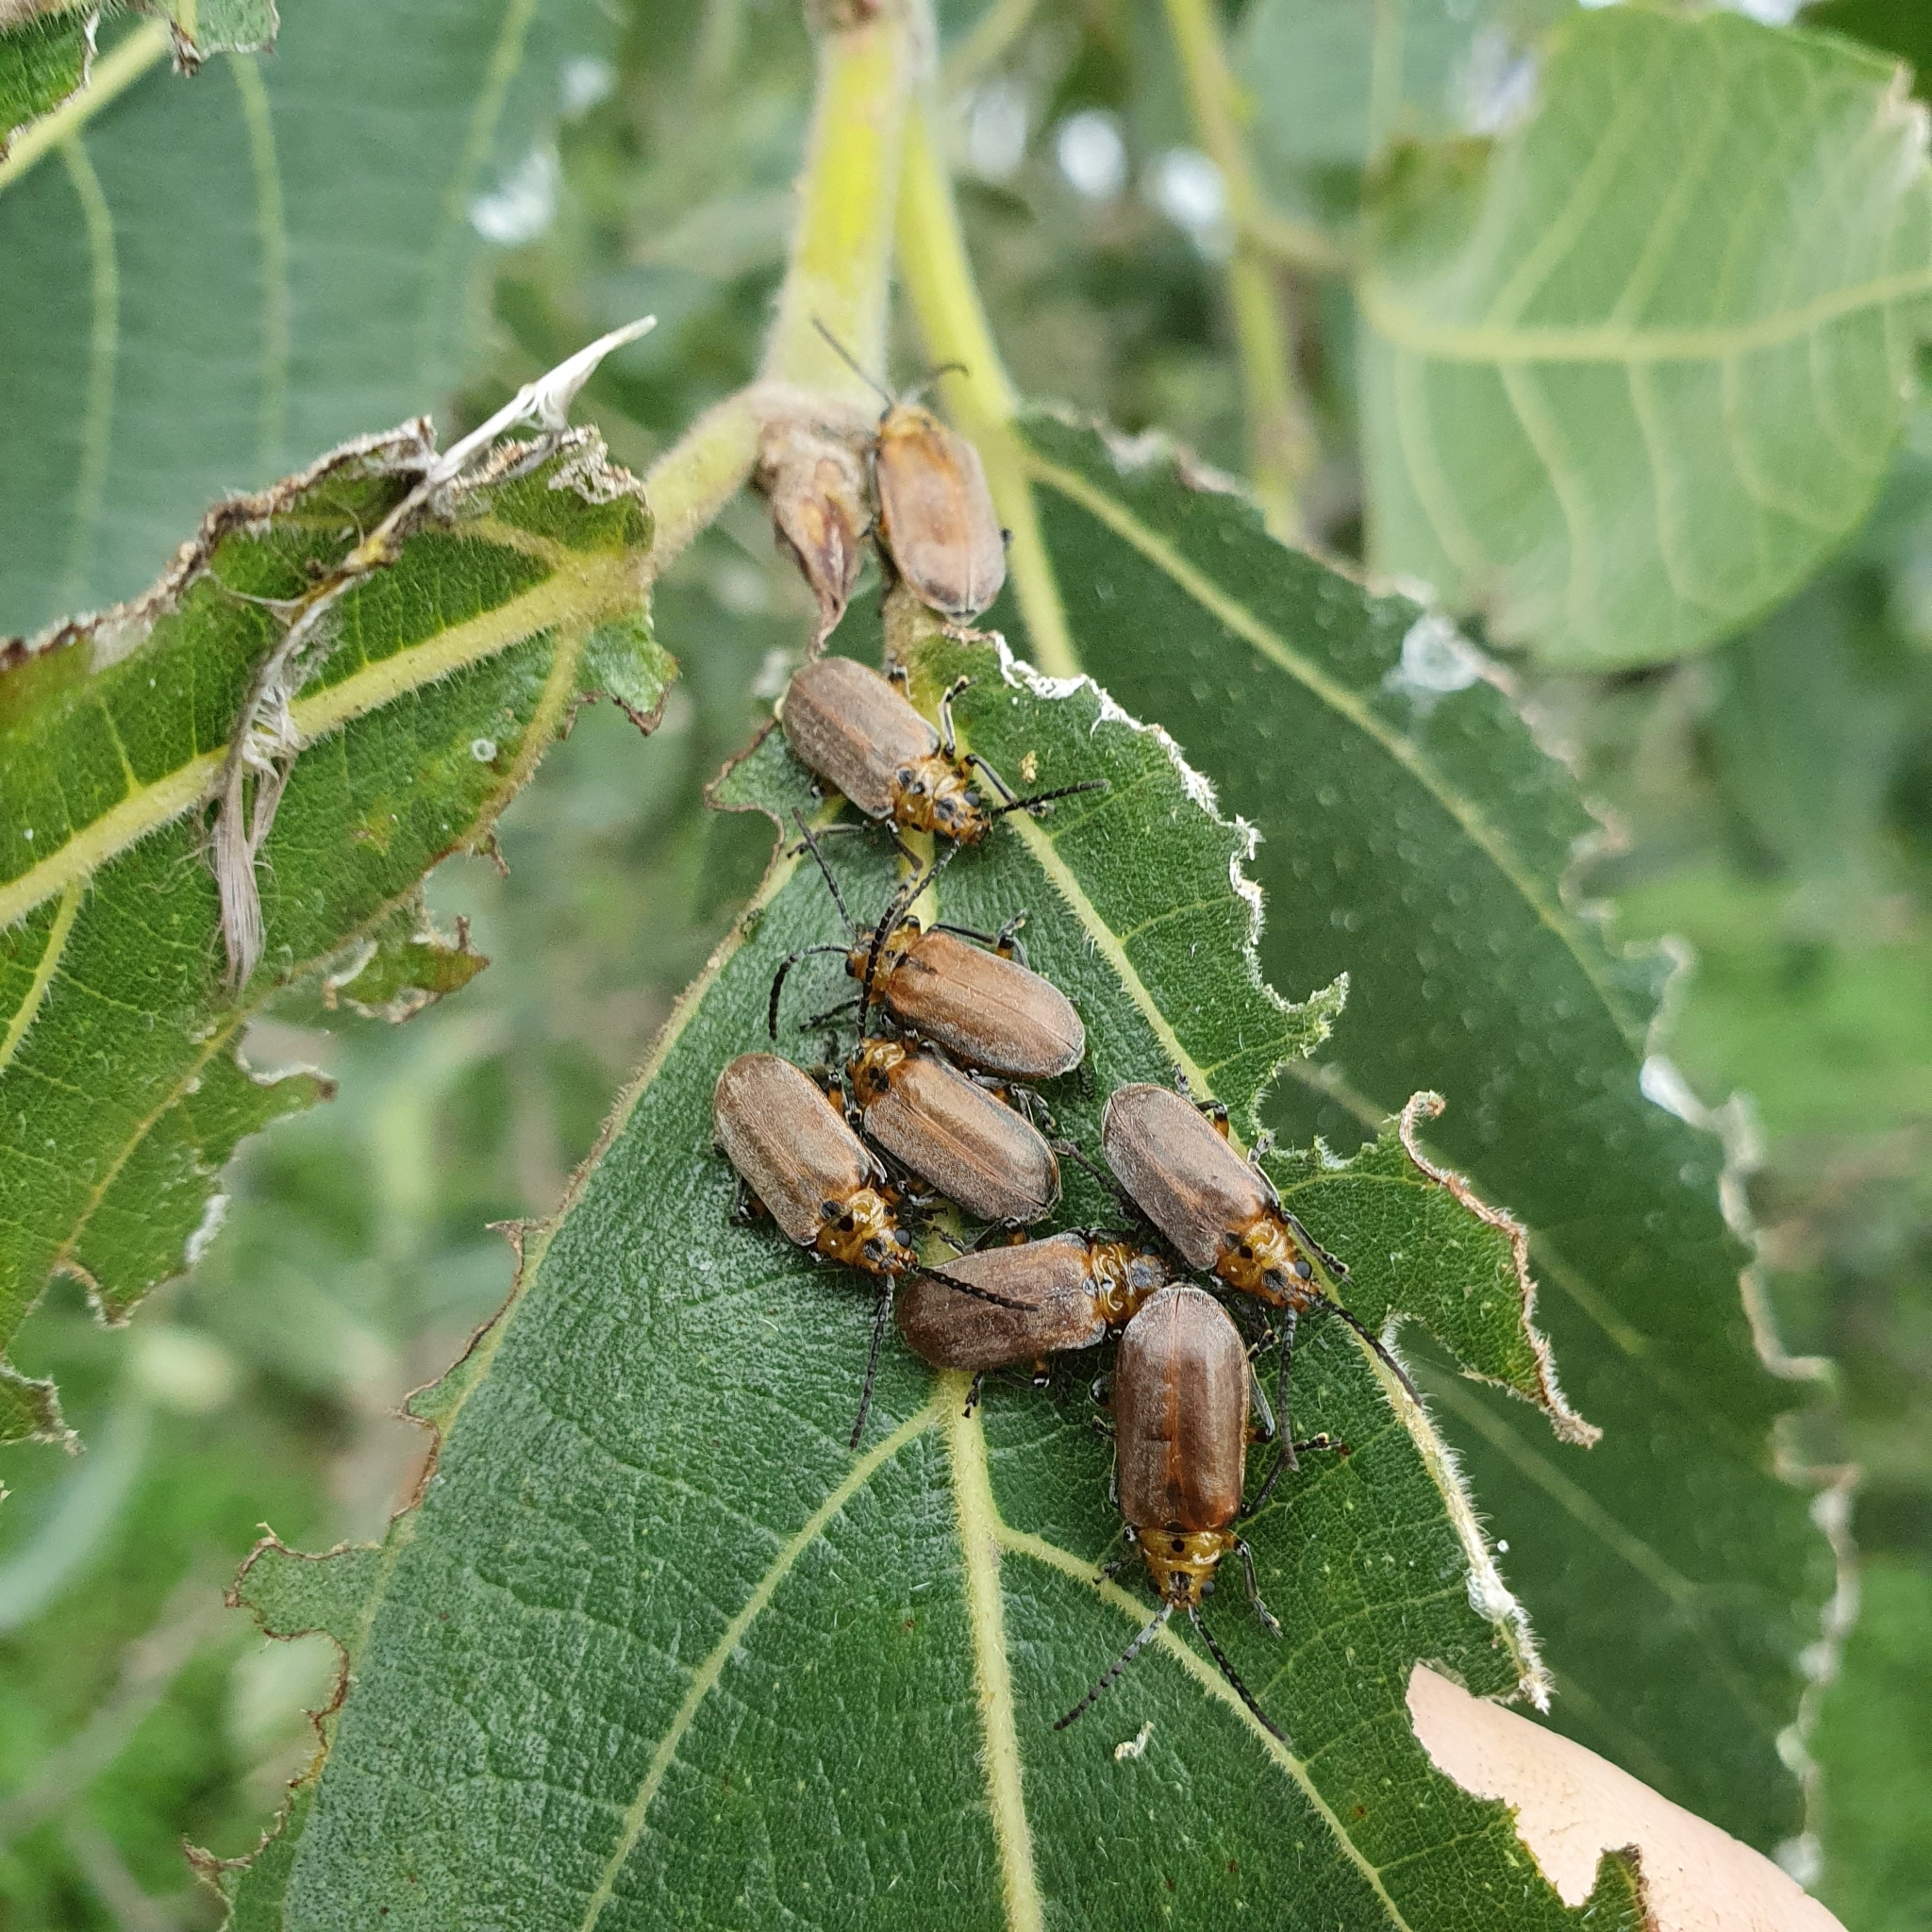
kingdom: Animalia
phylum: Arthropoda
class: Insecta
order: Coleoptera
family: Chrysomelidae
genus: Poneridia
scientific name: Poneridia semipullata
